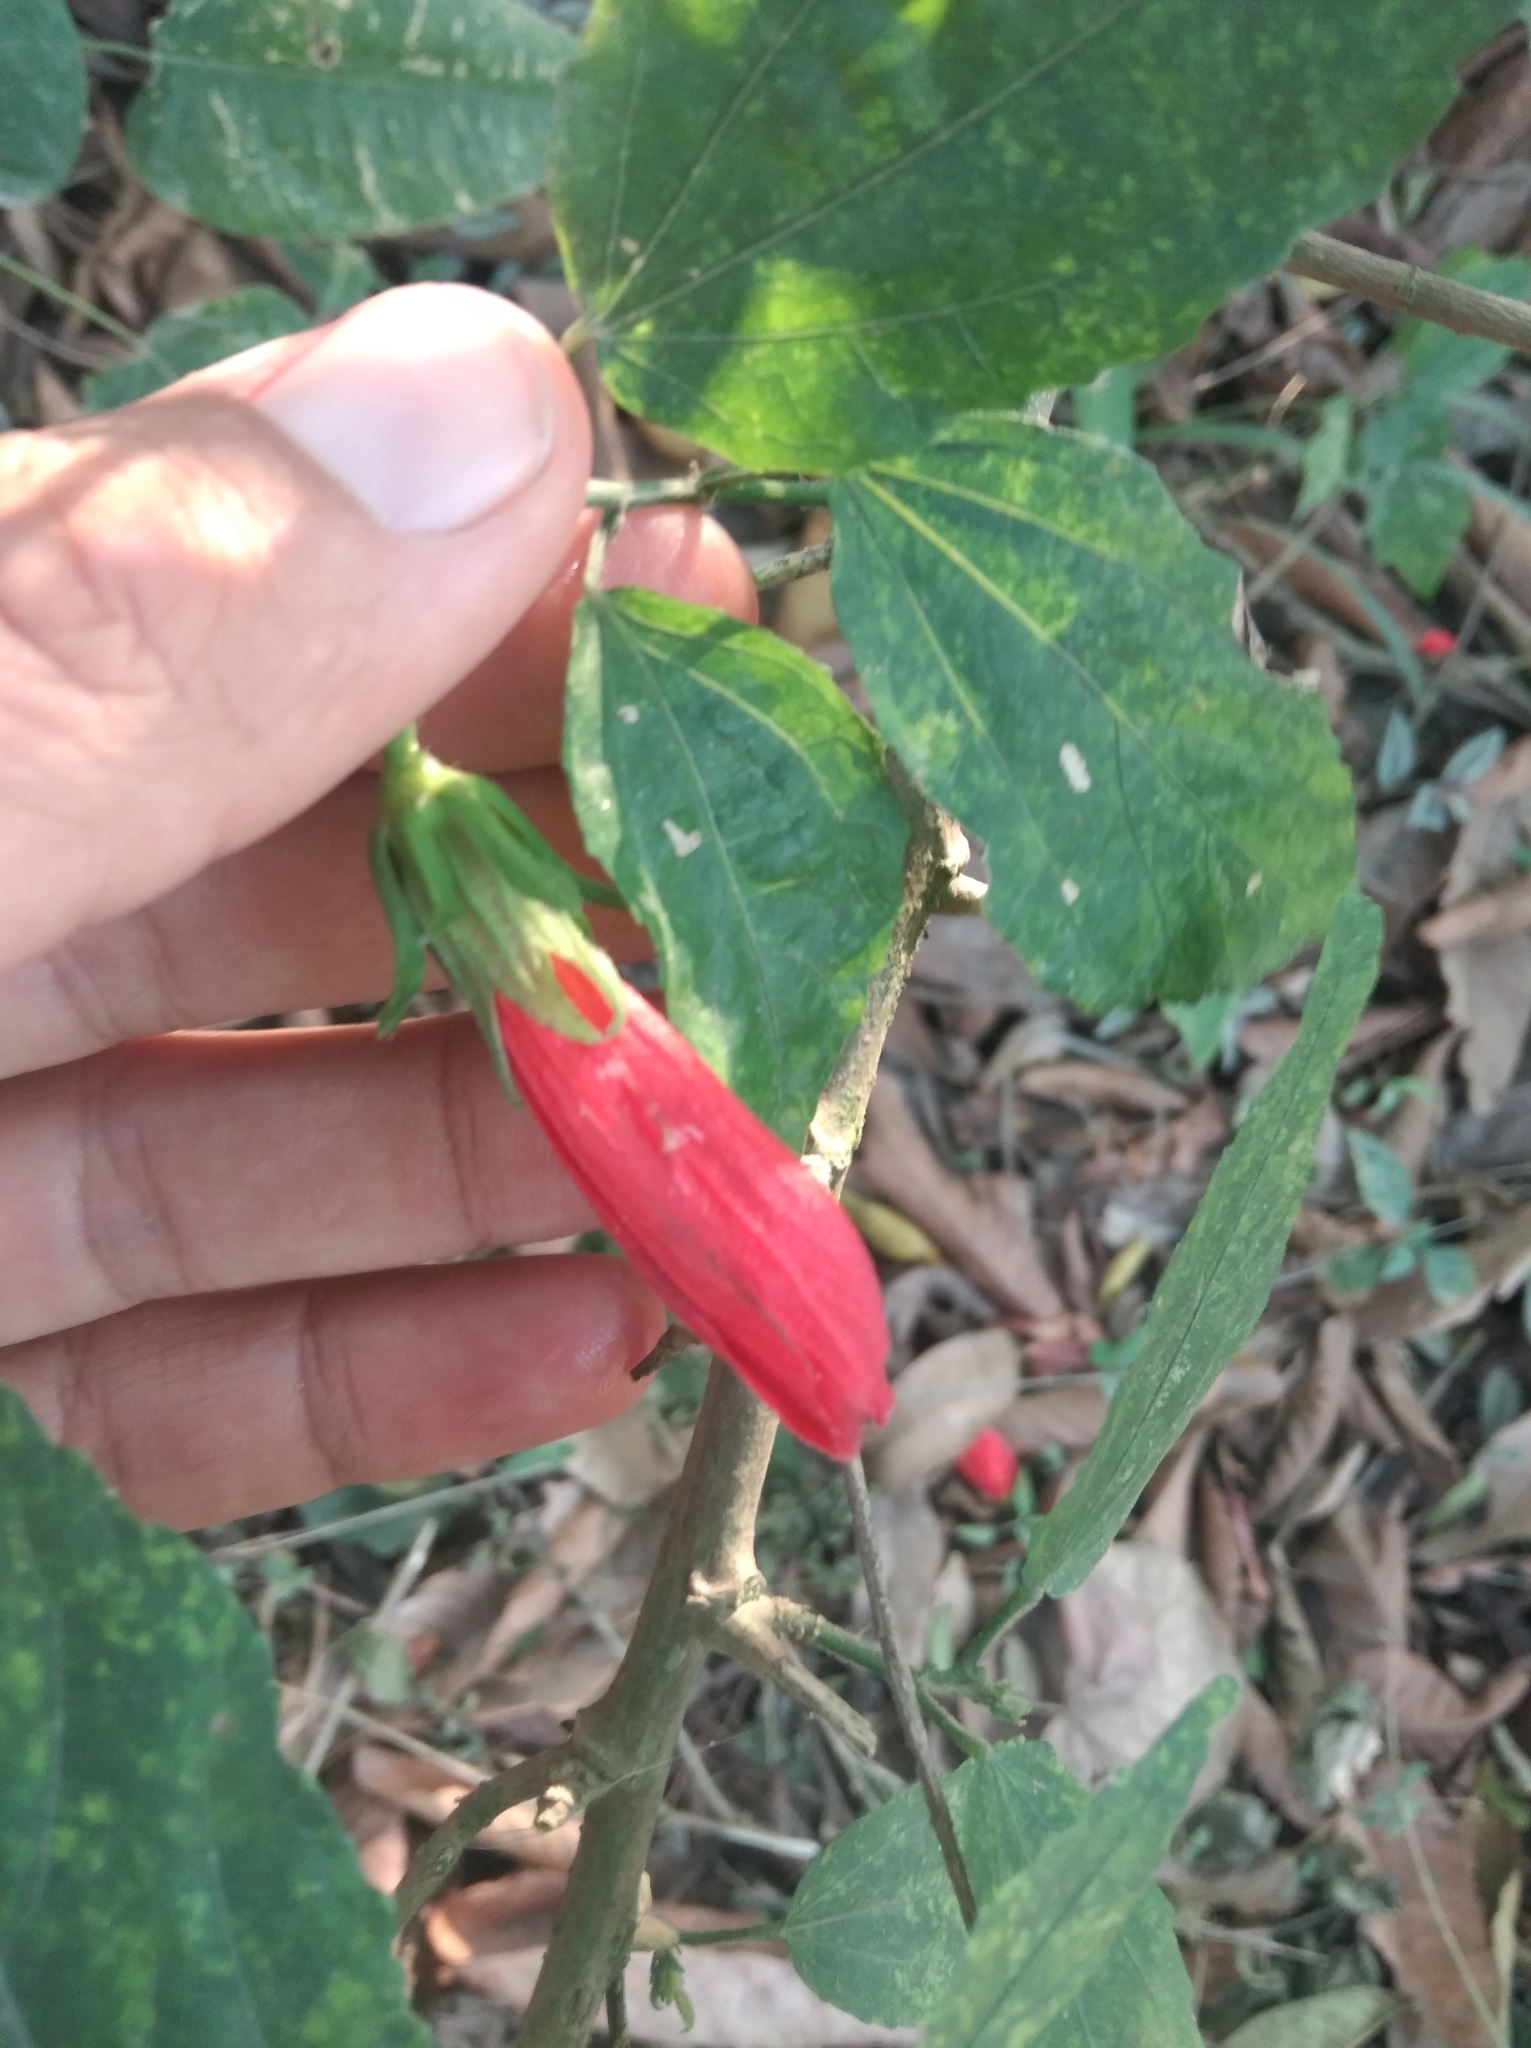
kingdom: Plantae
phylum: Tracheophyta
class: Magnoliopsida
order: Malvales
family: Malvaceae
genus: Malvaviscus
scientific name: Malvaviscus penduliflorus
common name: Mazapan
